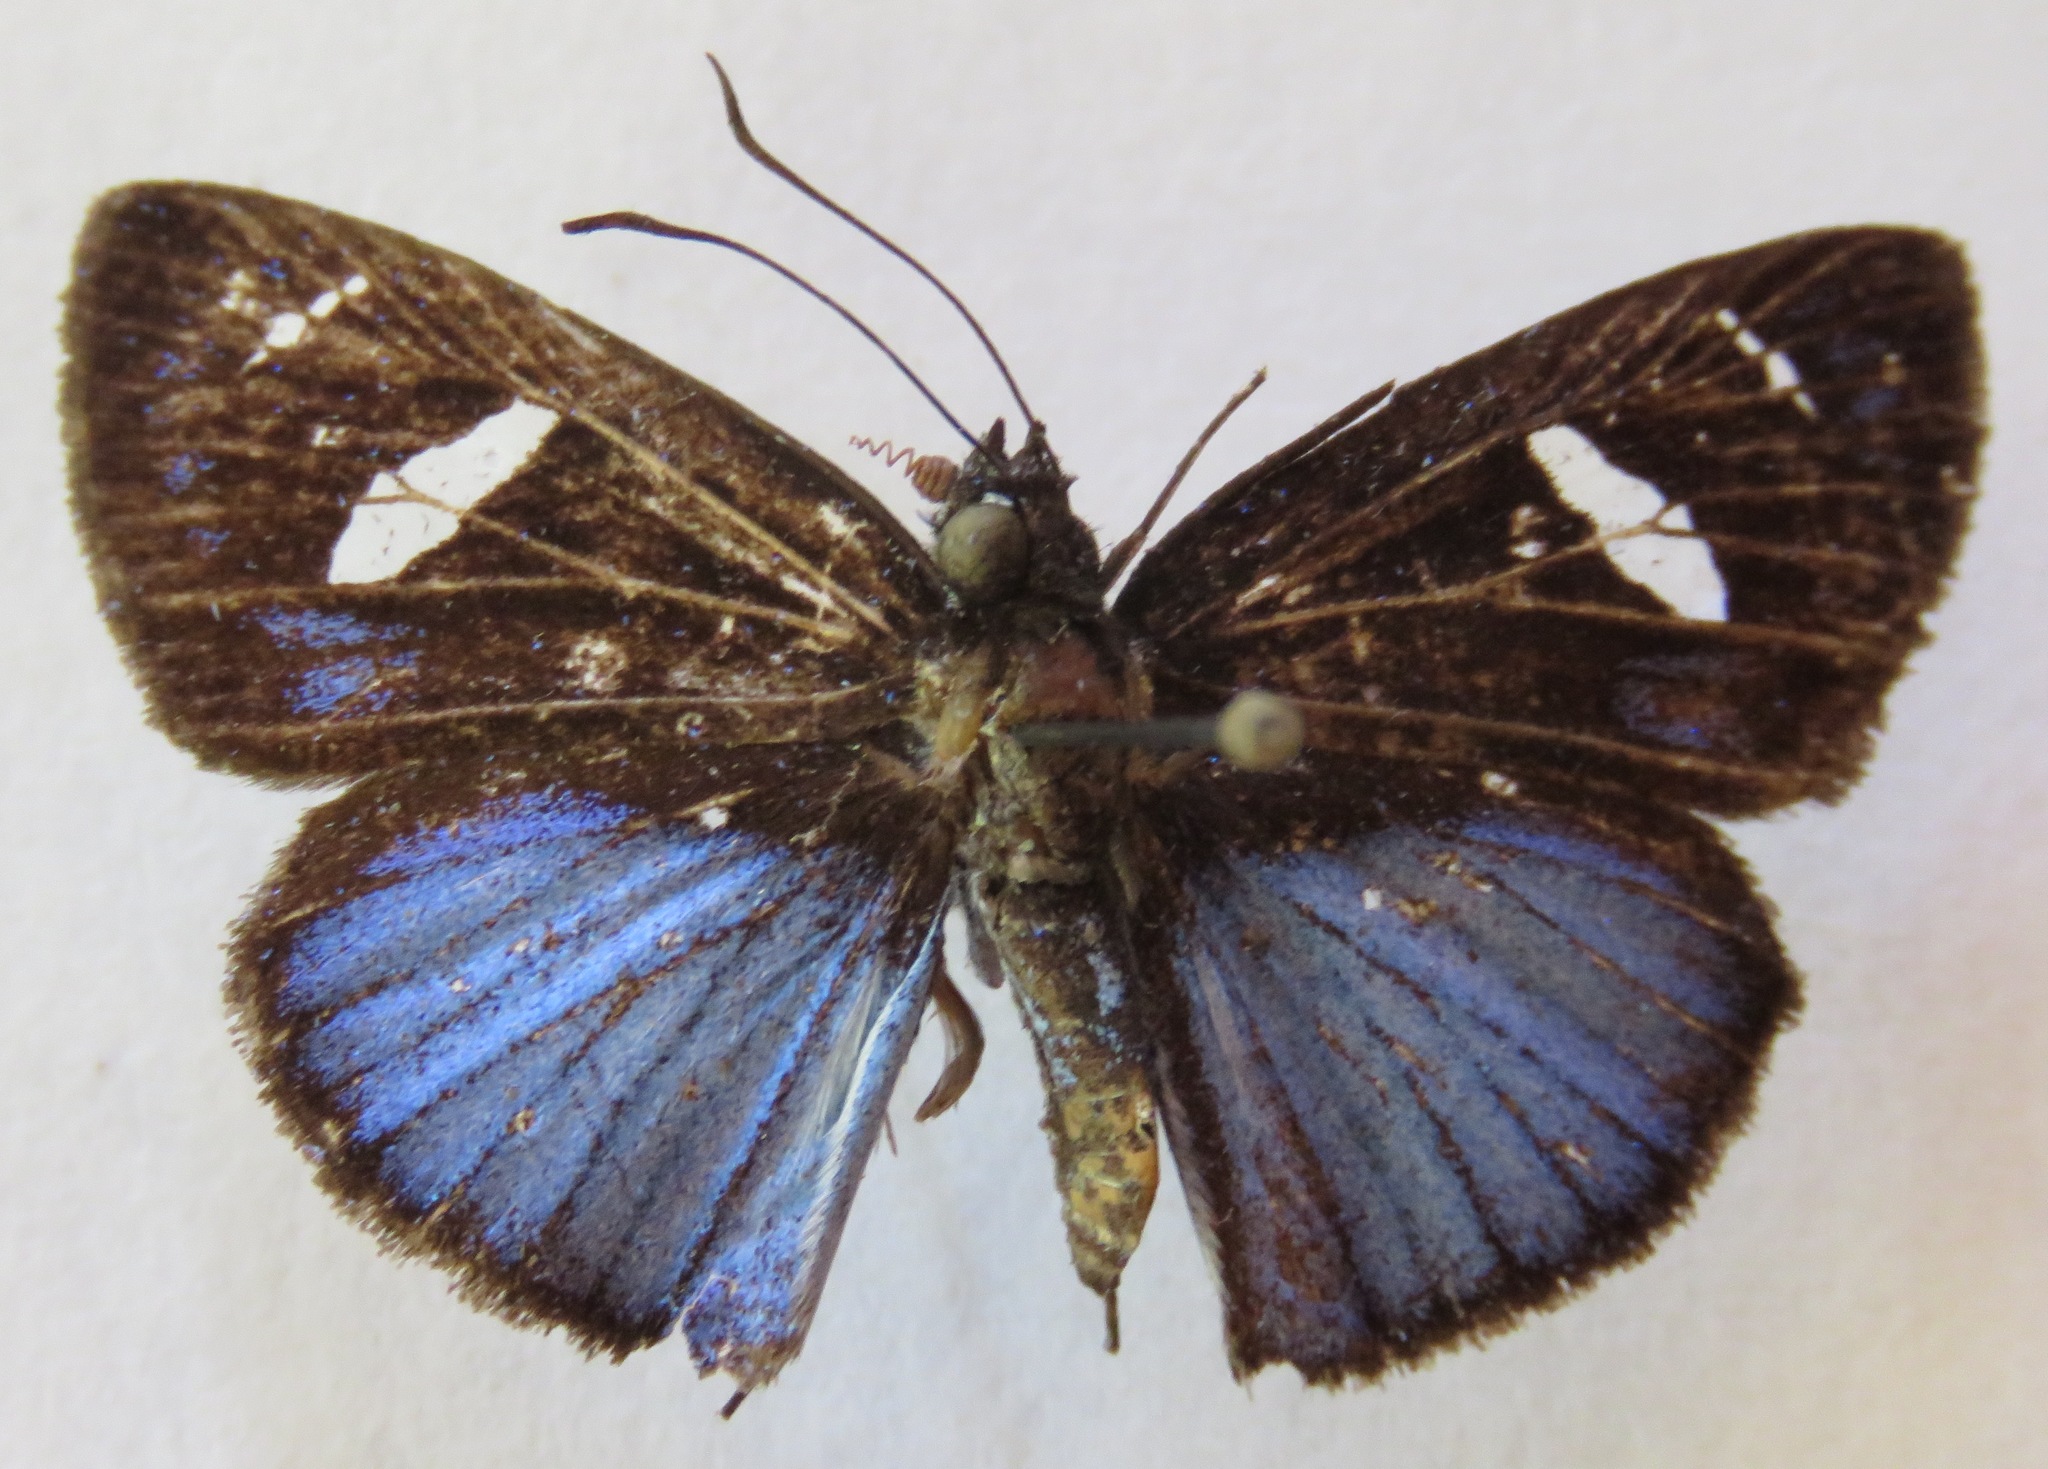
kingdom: Animalia
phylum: Arthropoda
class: Insecta
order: Lepidoptera
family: Hesperiidae
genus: Pythonides
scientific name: Pythonides jovianus
